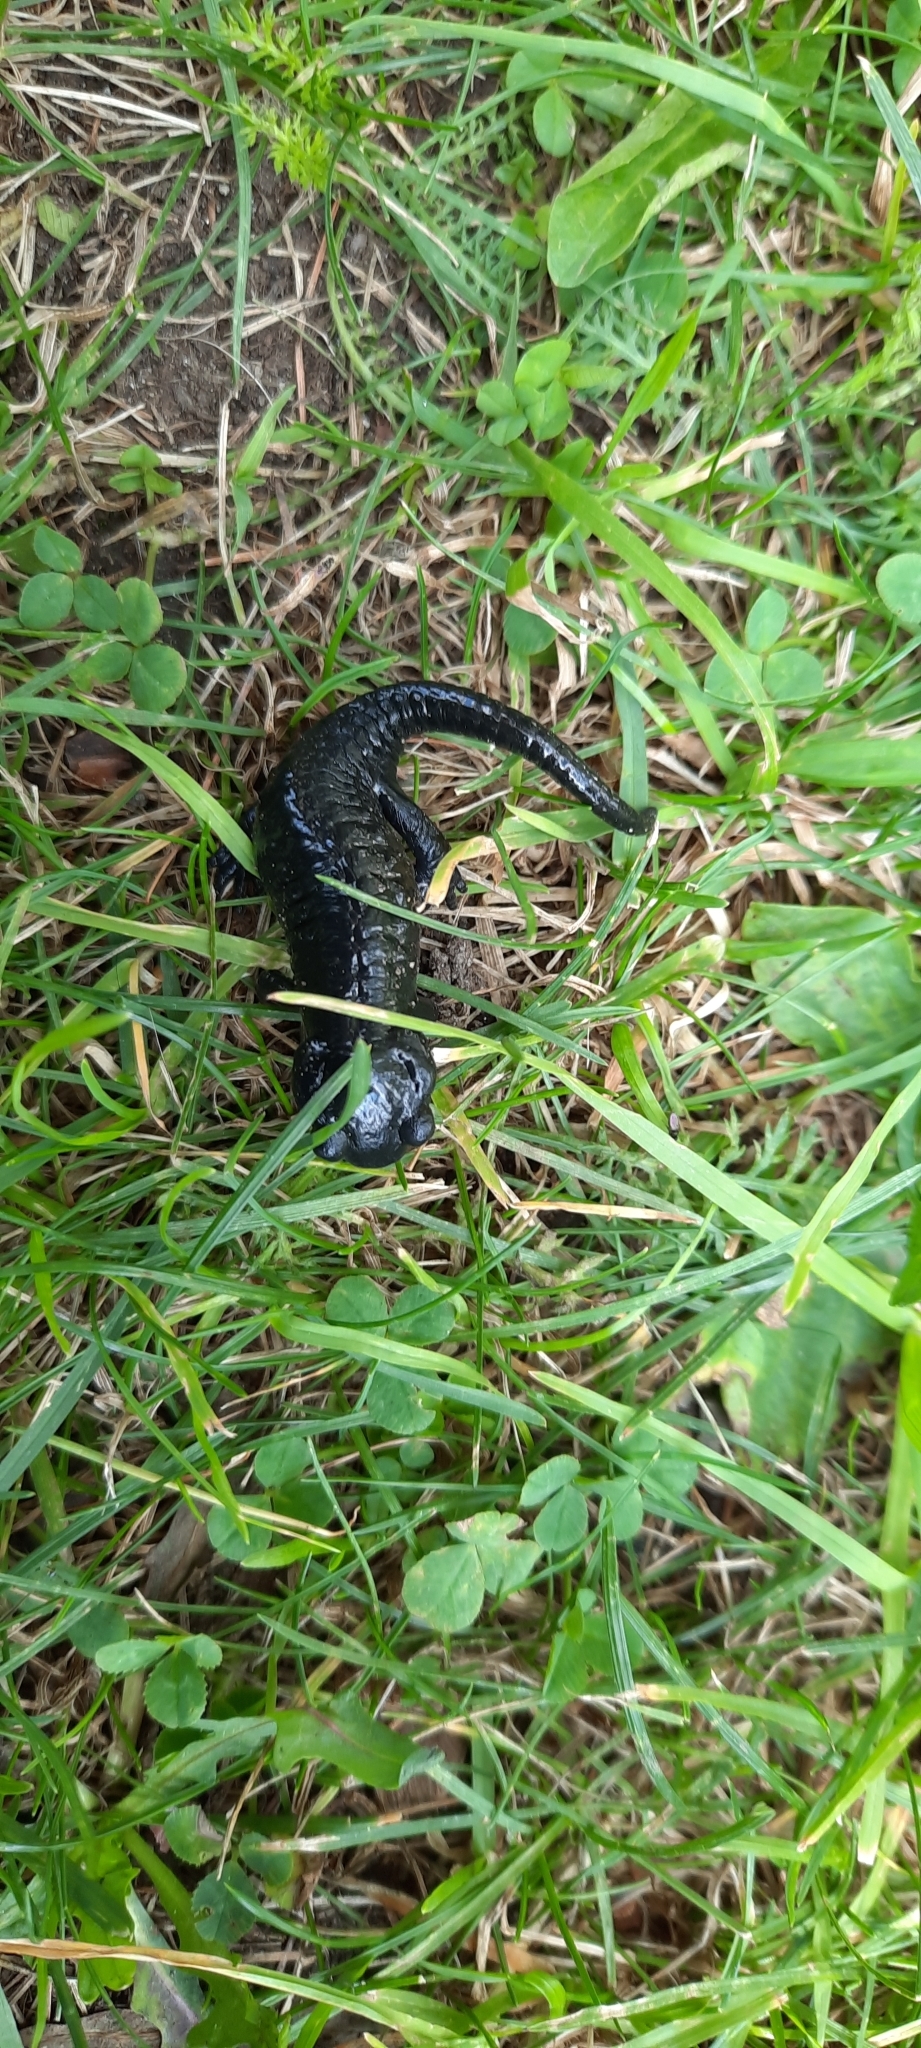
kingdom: Animalia
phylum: Chordata
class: Amphibia
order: Caudata
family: Salamandridae
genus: Salamandra
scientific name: Salamandra atra
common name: Alpine salamander
